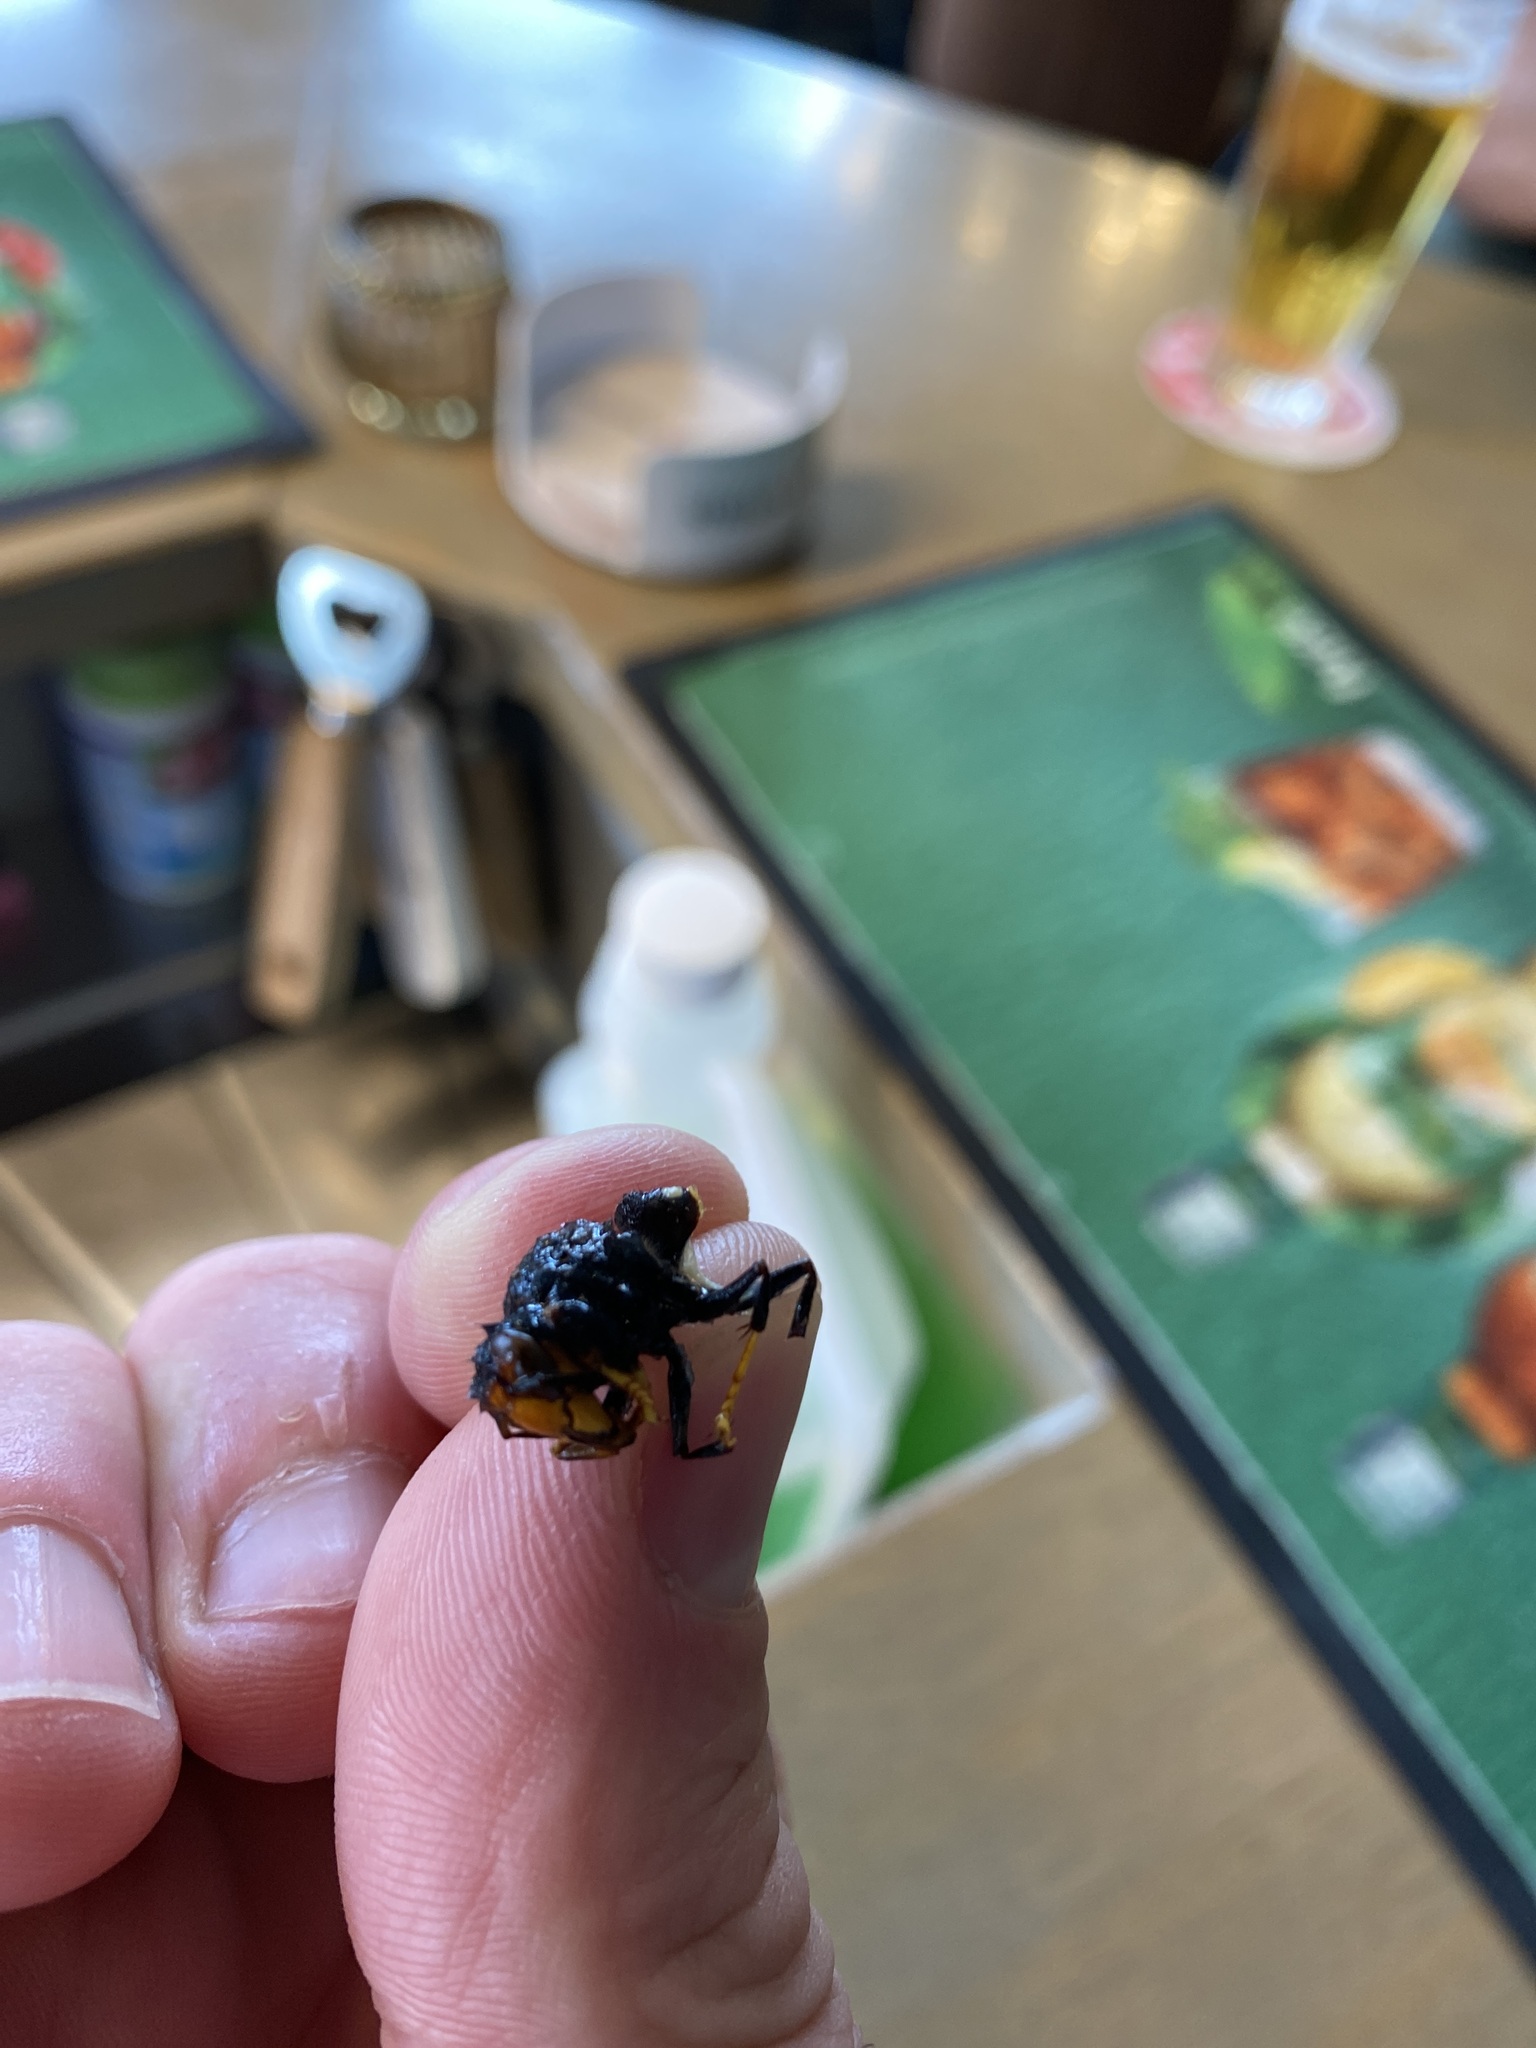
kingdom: Animalia
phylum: Arthropoda
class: Insecta
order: Hymenoptera
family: Vespidae
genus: Vespa
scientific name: Vespa velutina
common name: Asian hornet
